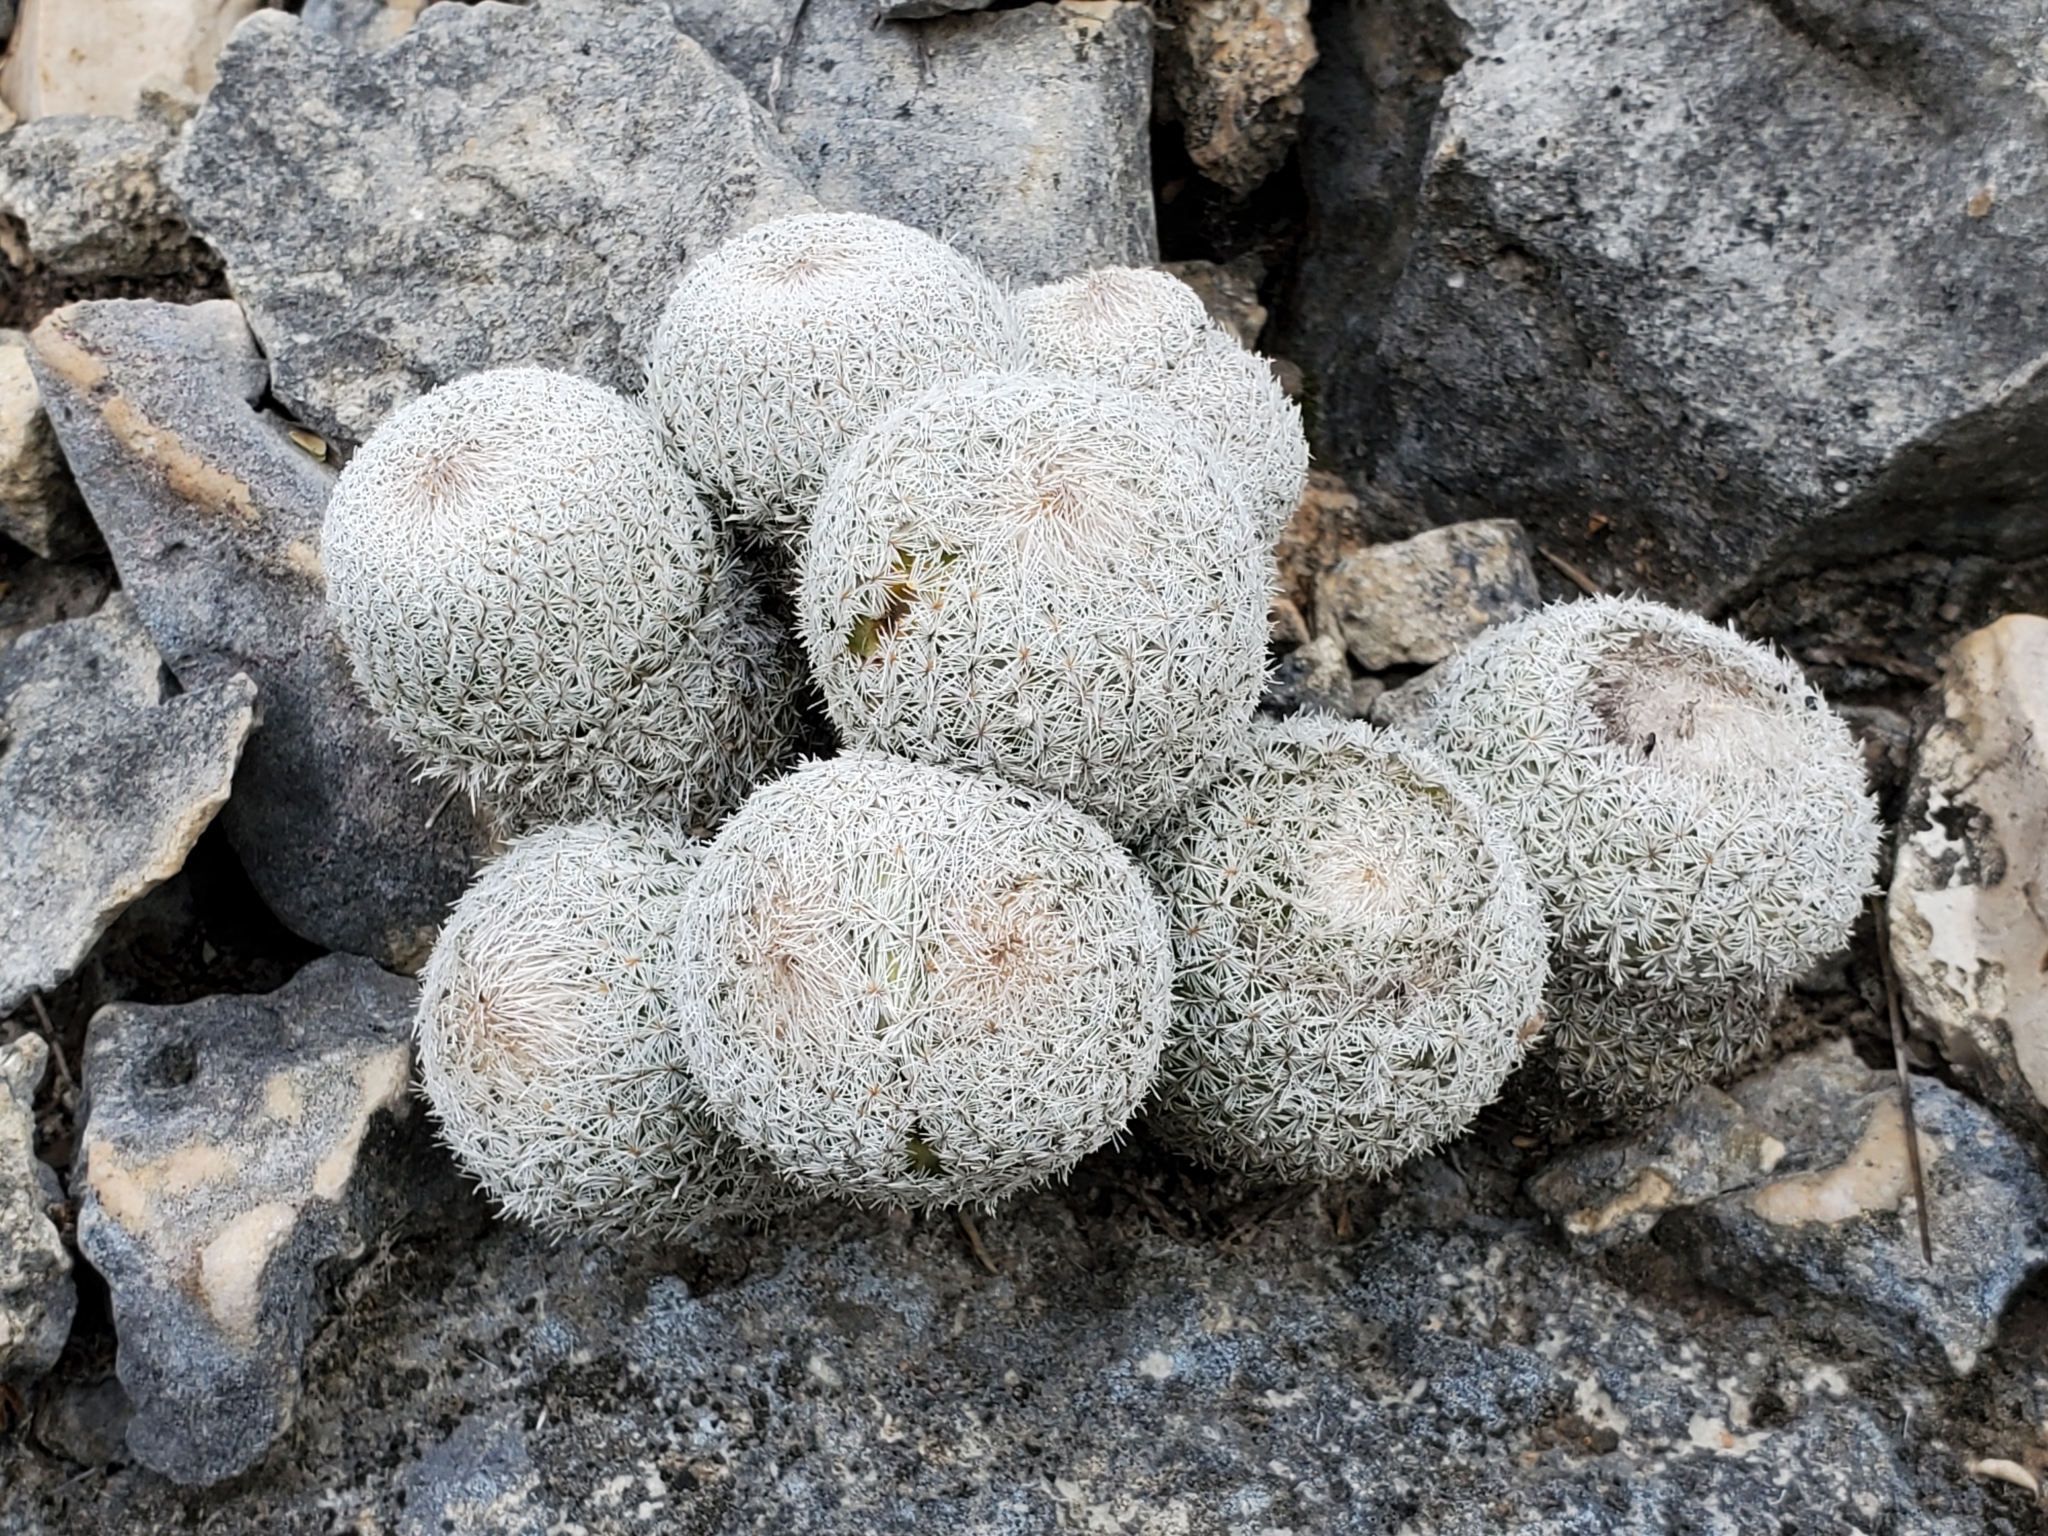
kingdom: Plantae
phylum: Tracheophyta
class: Magnoliopsida
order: Caryophyllales
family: Cactaceae
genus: Epithelantha
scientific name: Epithelantha micromeris
